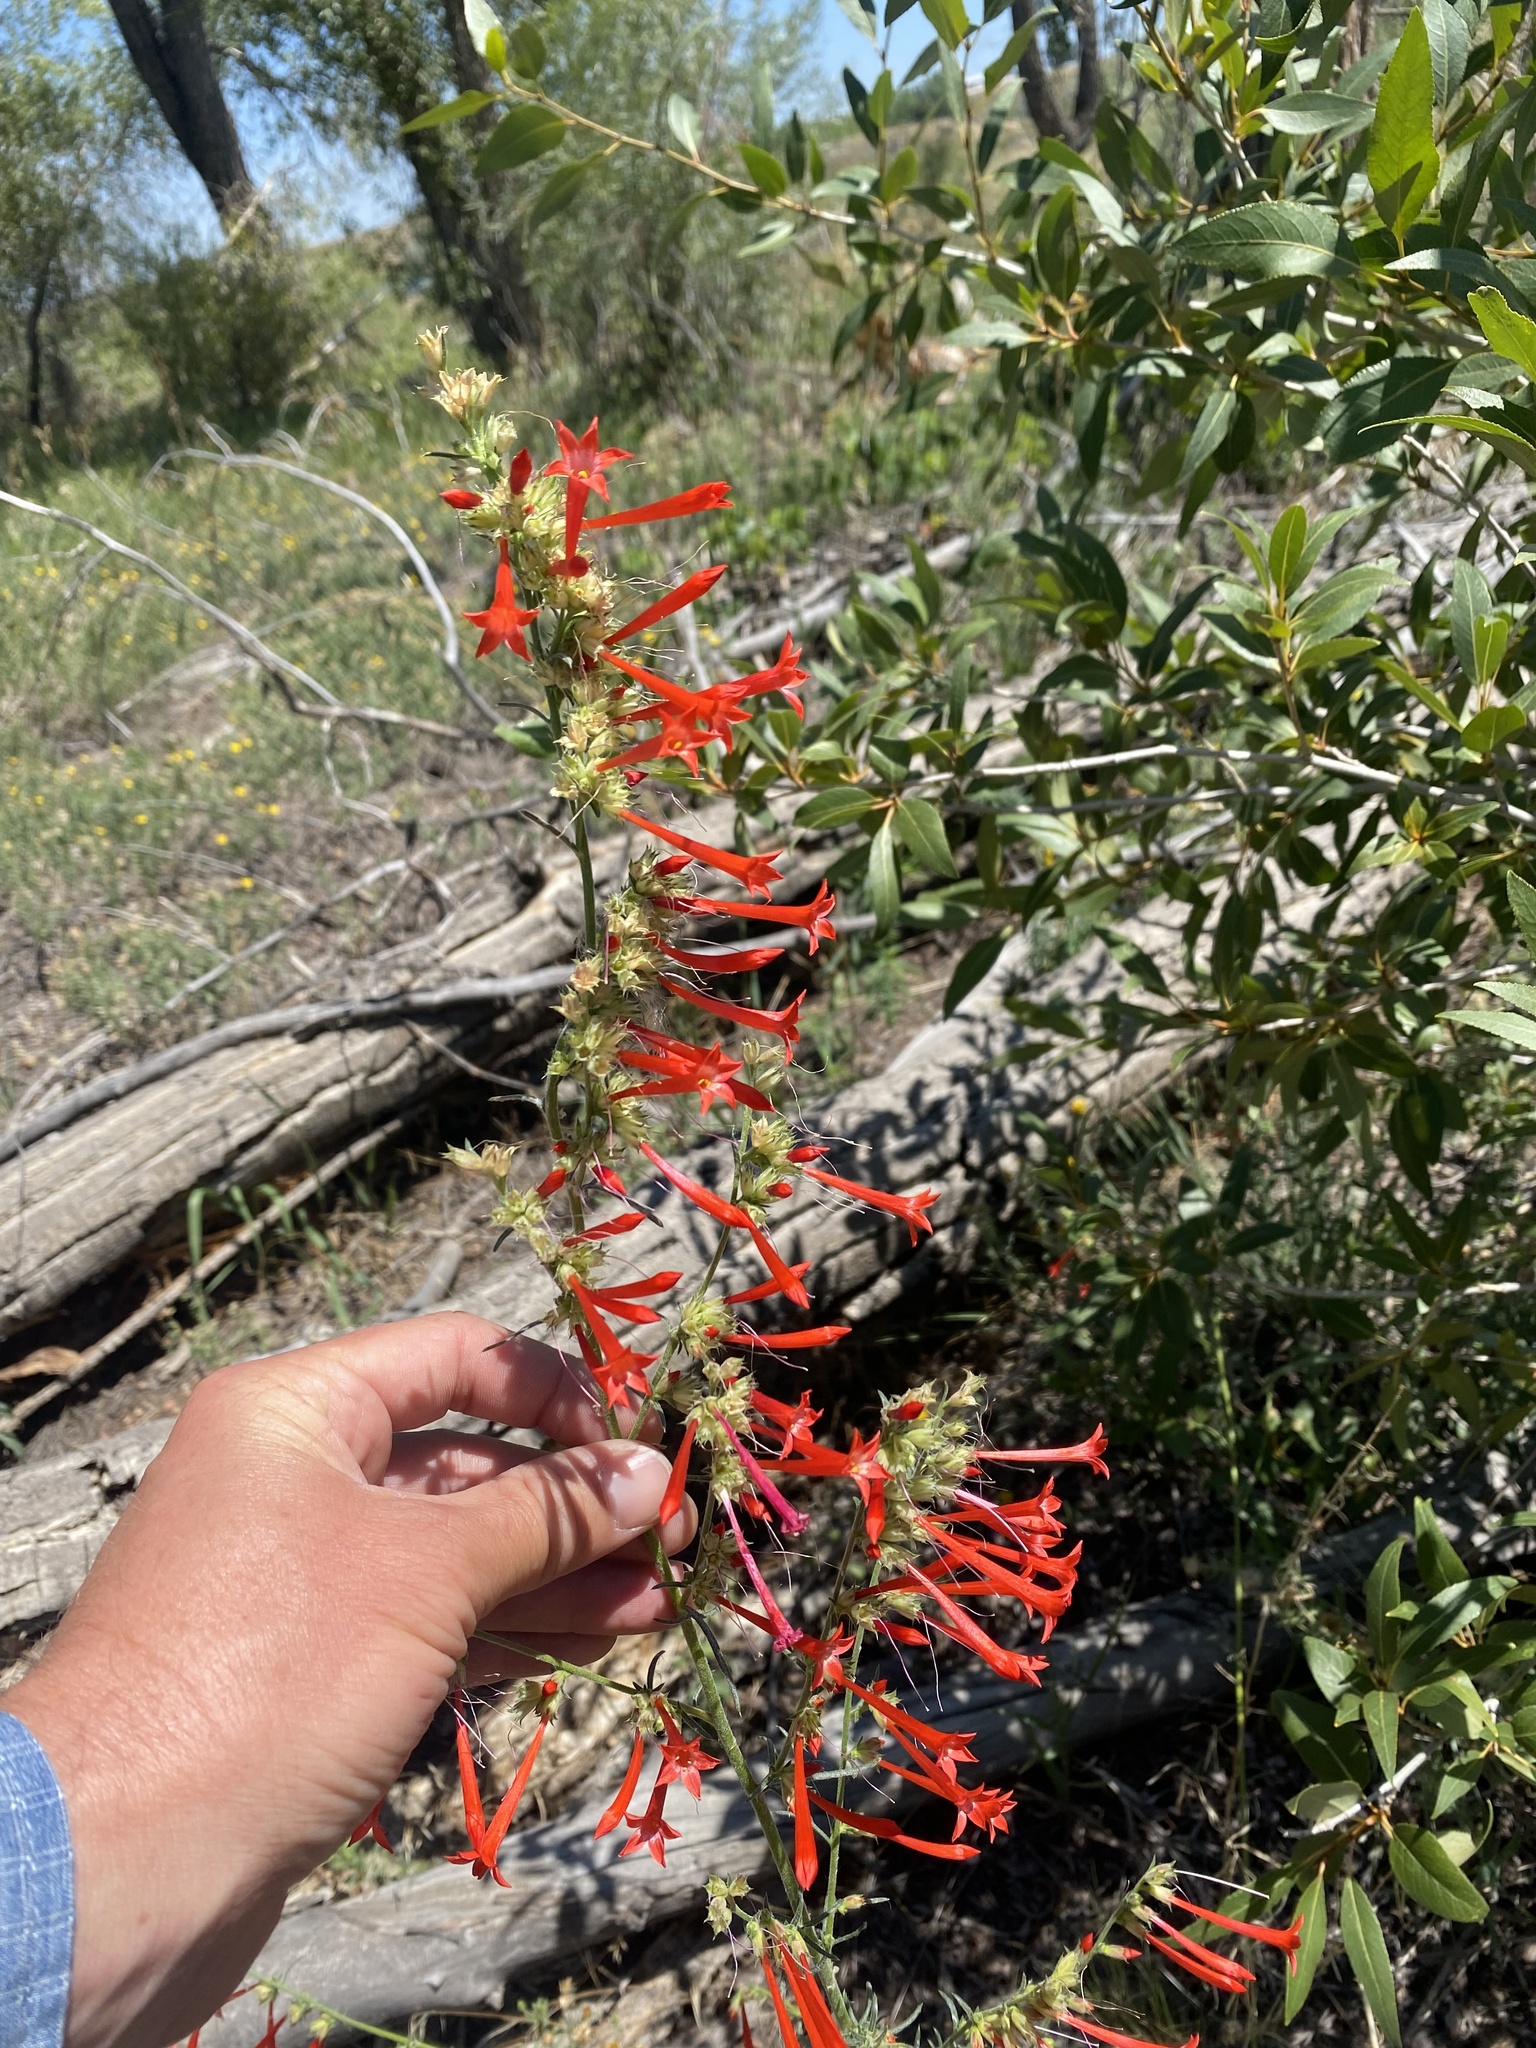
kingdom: Plantae
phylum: Tracheophyta
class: Magnoliopsida
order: Ericales
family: Polemoniaceae
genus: Ipomopsis
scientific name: Ipomopsis aggregata
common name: Scarlet gilia
